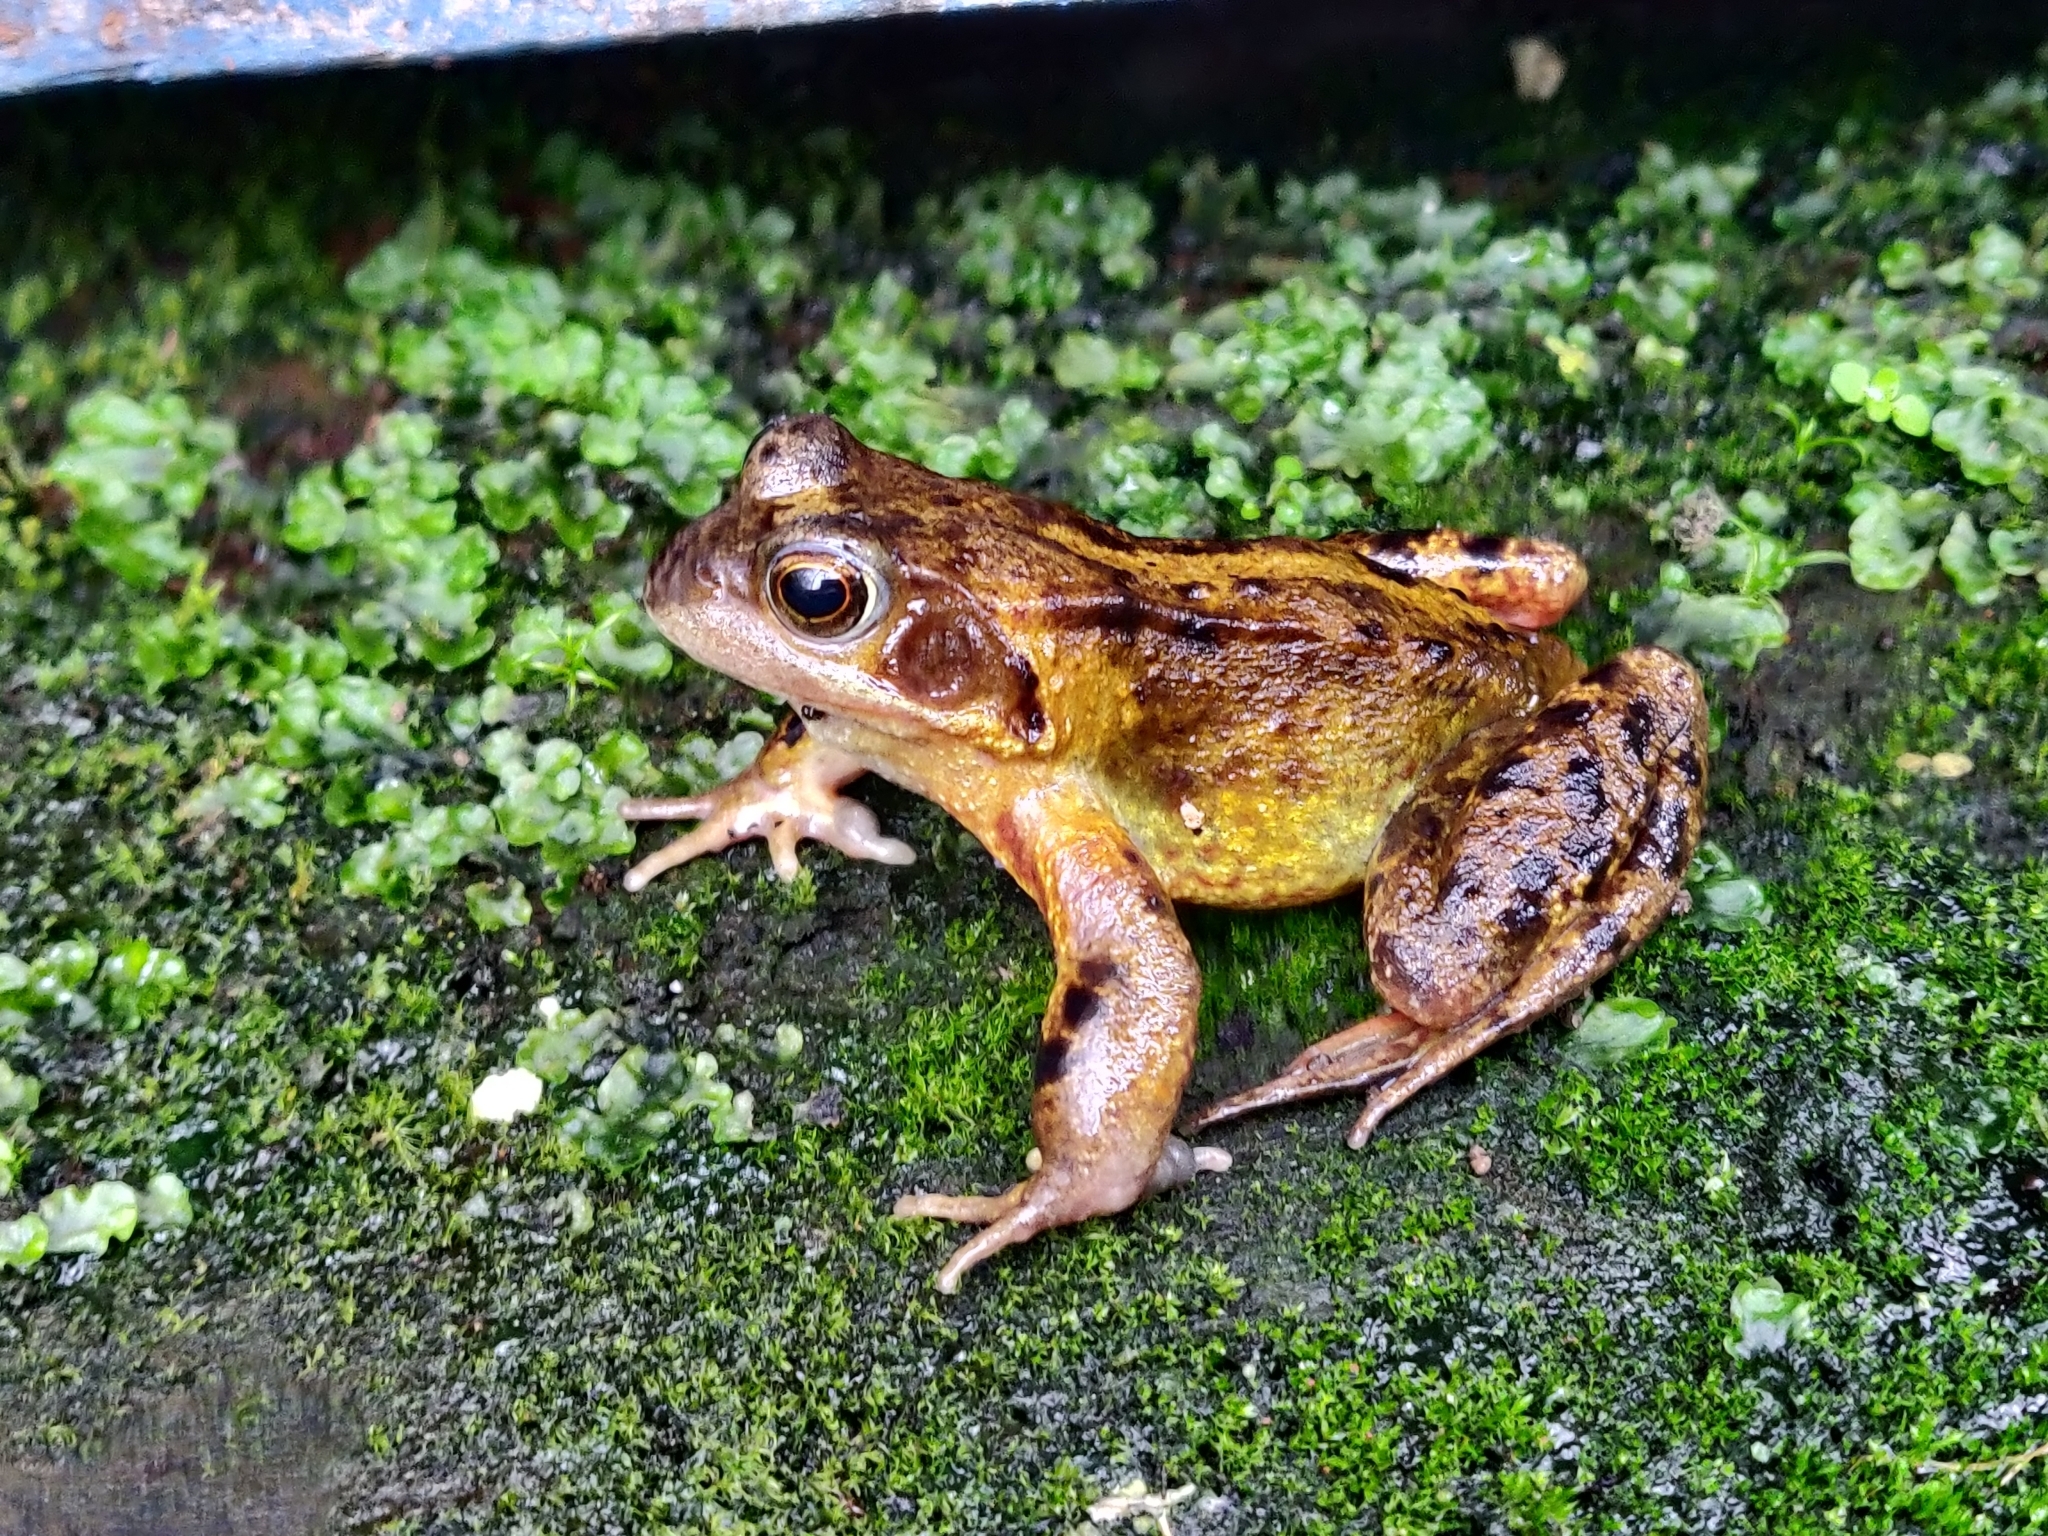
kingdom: Animalia
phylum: Chordata
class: Amphibia
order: Anura
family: Ranidae
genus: Rana
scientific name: Rana temporaria
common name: Common frog
